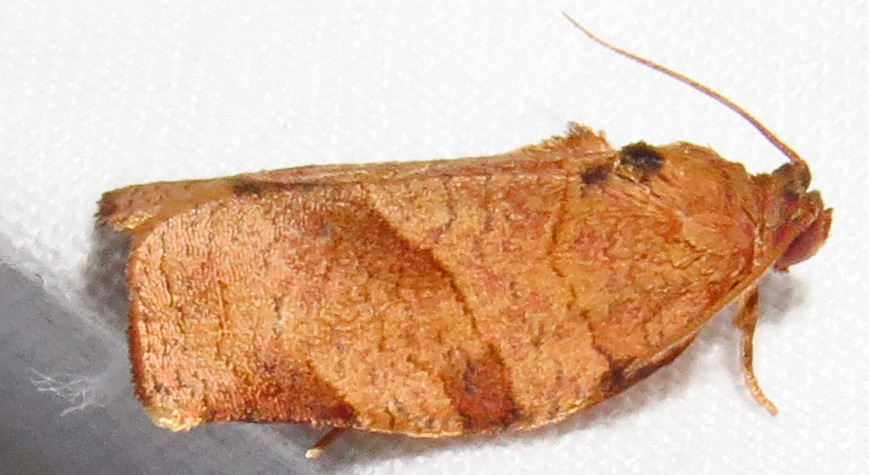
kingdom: Animalia
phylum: Arthropoda
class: Insecta
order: Lepidoptera
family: Tortricidae
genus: Choristoneura
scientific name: Choristoneura rosaceana
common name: Oblique-banded leafroller moth
